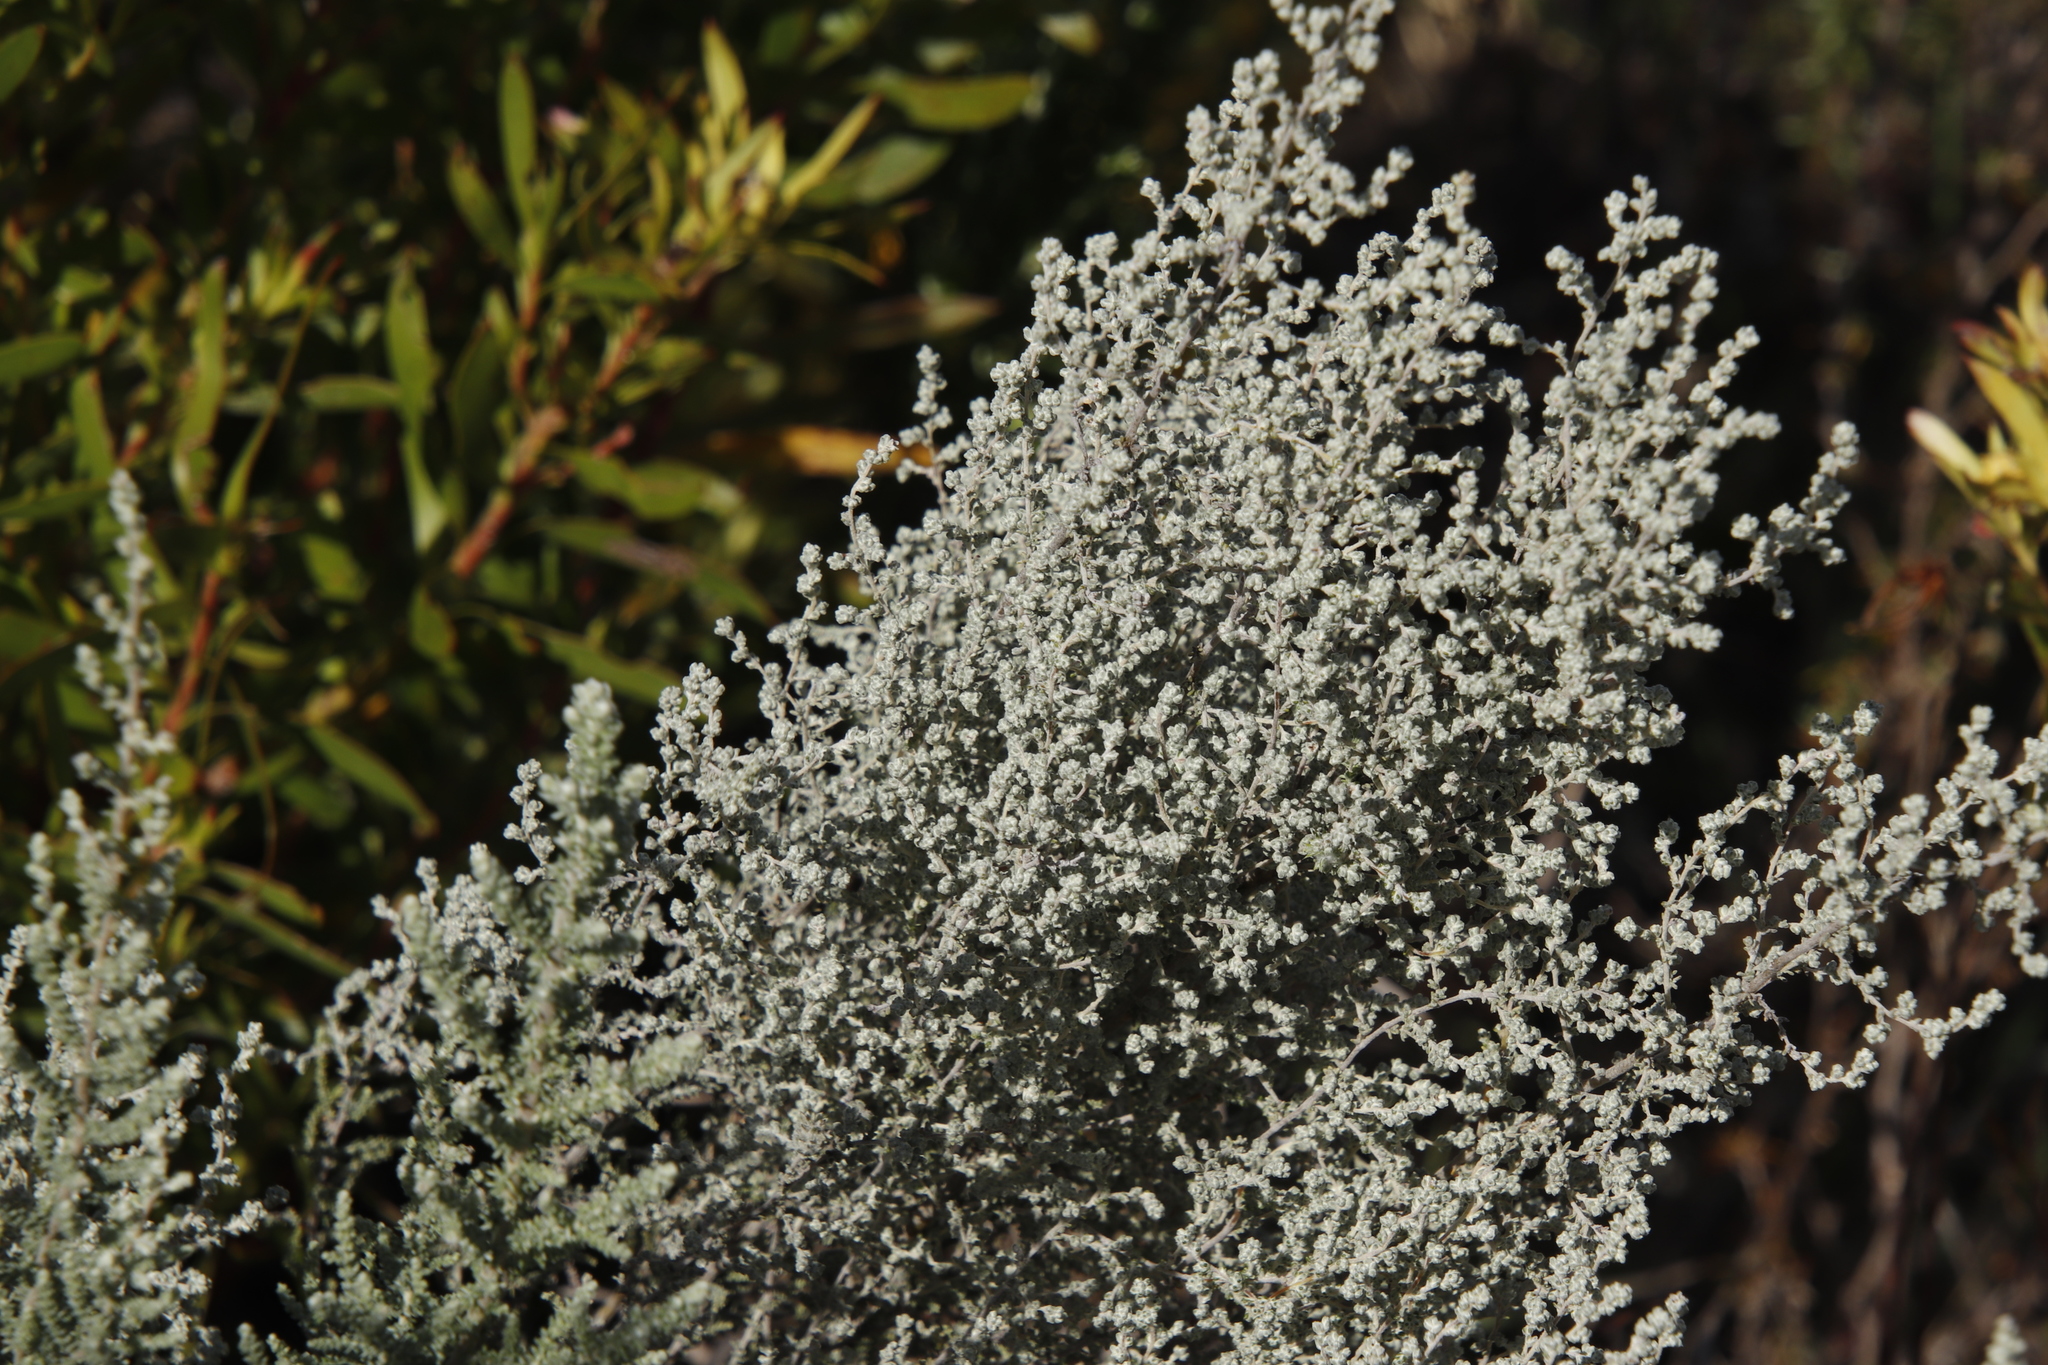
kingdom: Plantae
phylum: Tracheophyta
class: Magnoliopsida
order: Asterales
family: Asteraceae
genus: Seriphium
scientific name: Seriphium plumosum
